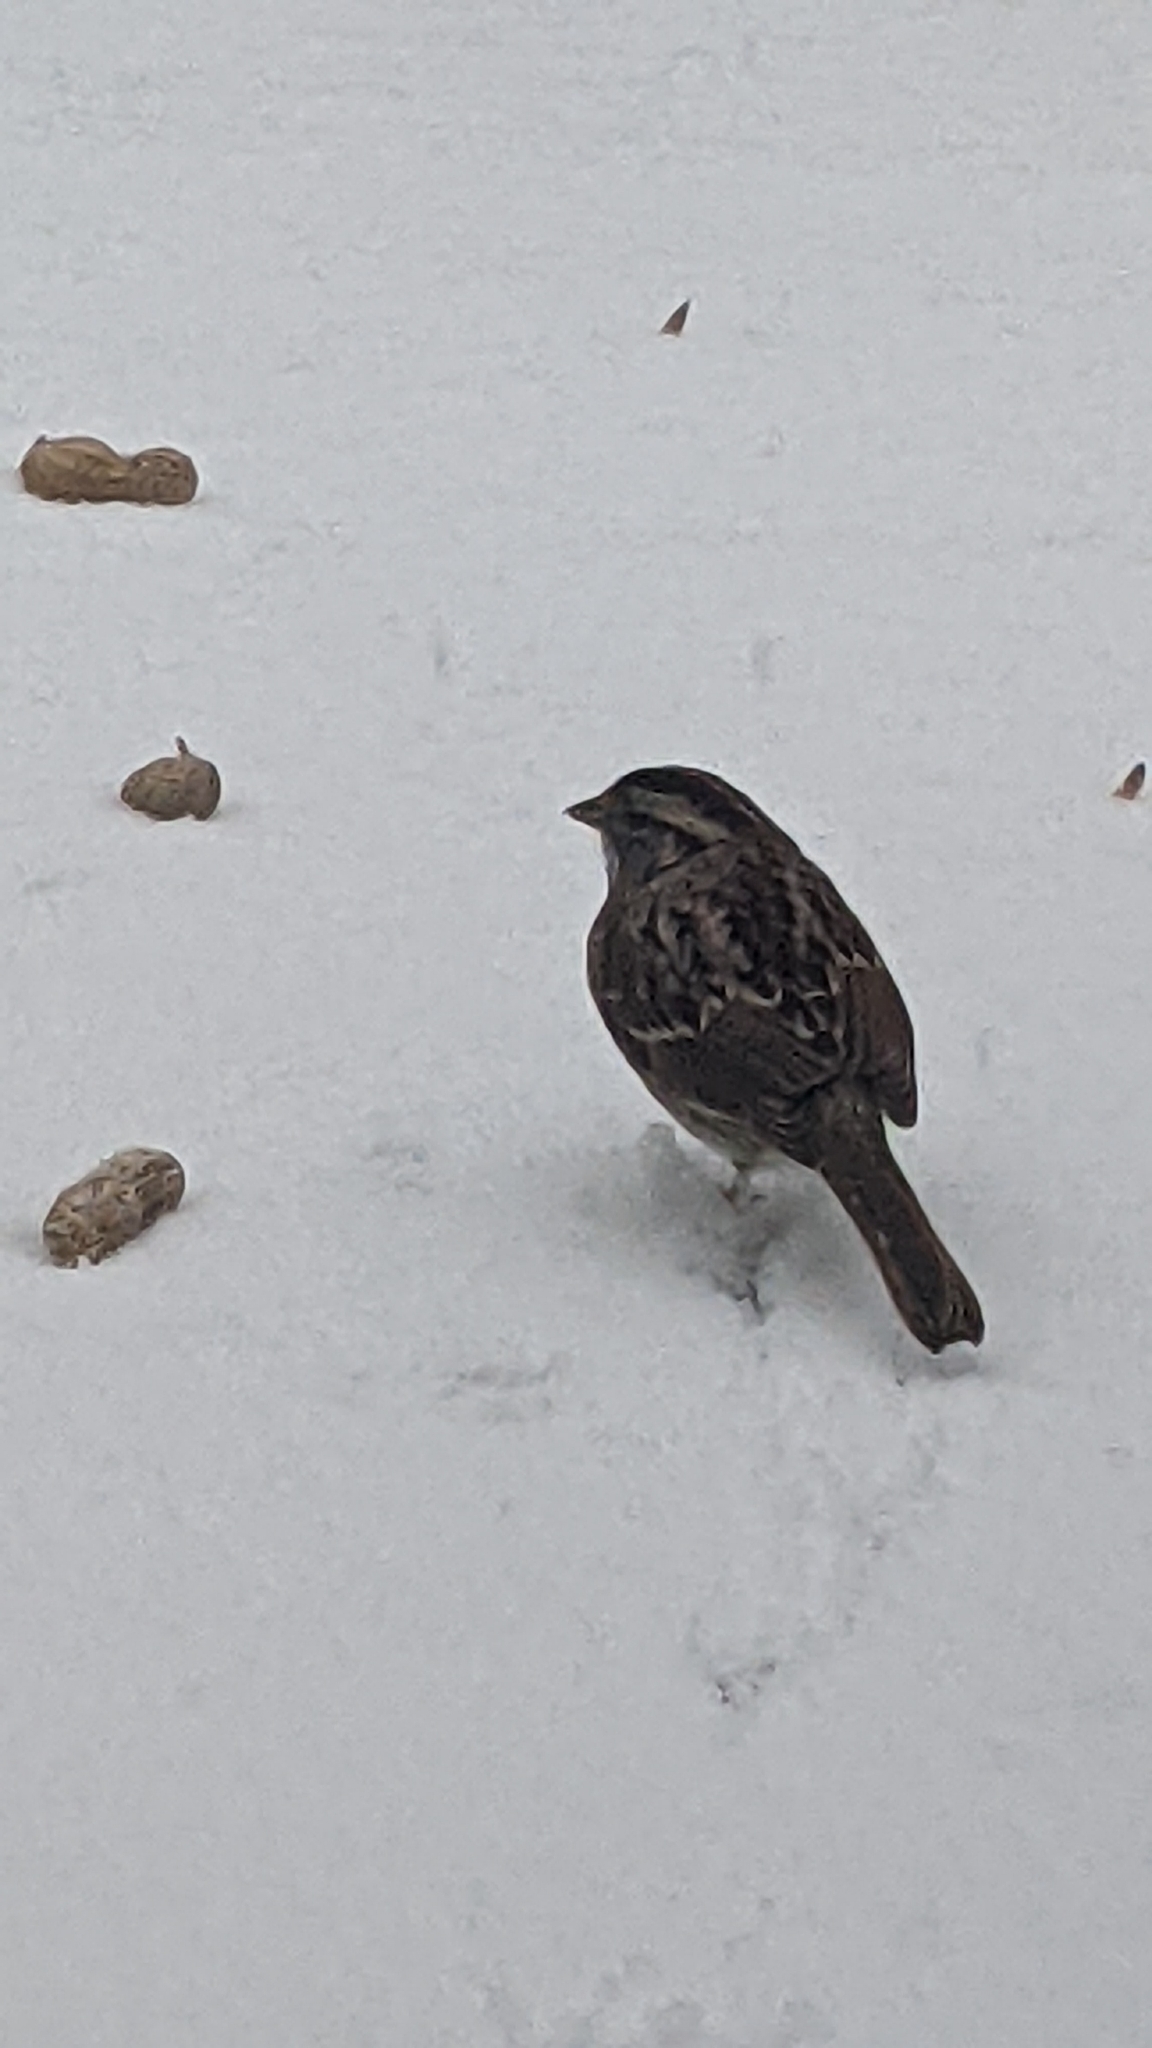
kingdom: Animalia
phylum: Chordata
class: Aves
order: Passeriformes
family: Passerellidae
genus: Zonotrichia
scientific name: Zonotrichia albicollis
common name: White-throated sparrow
